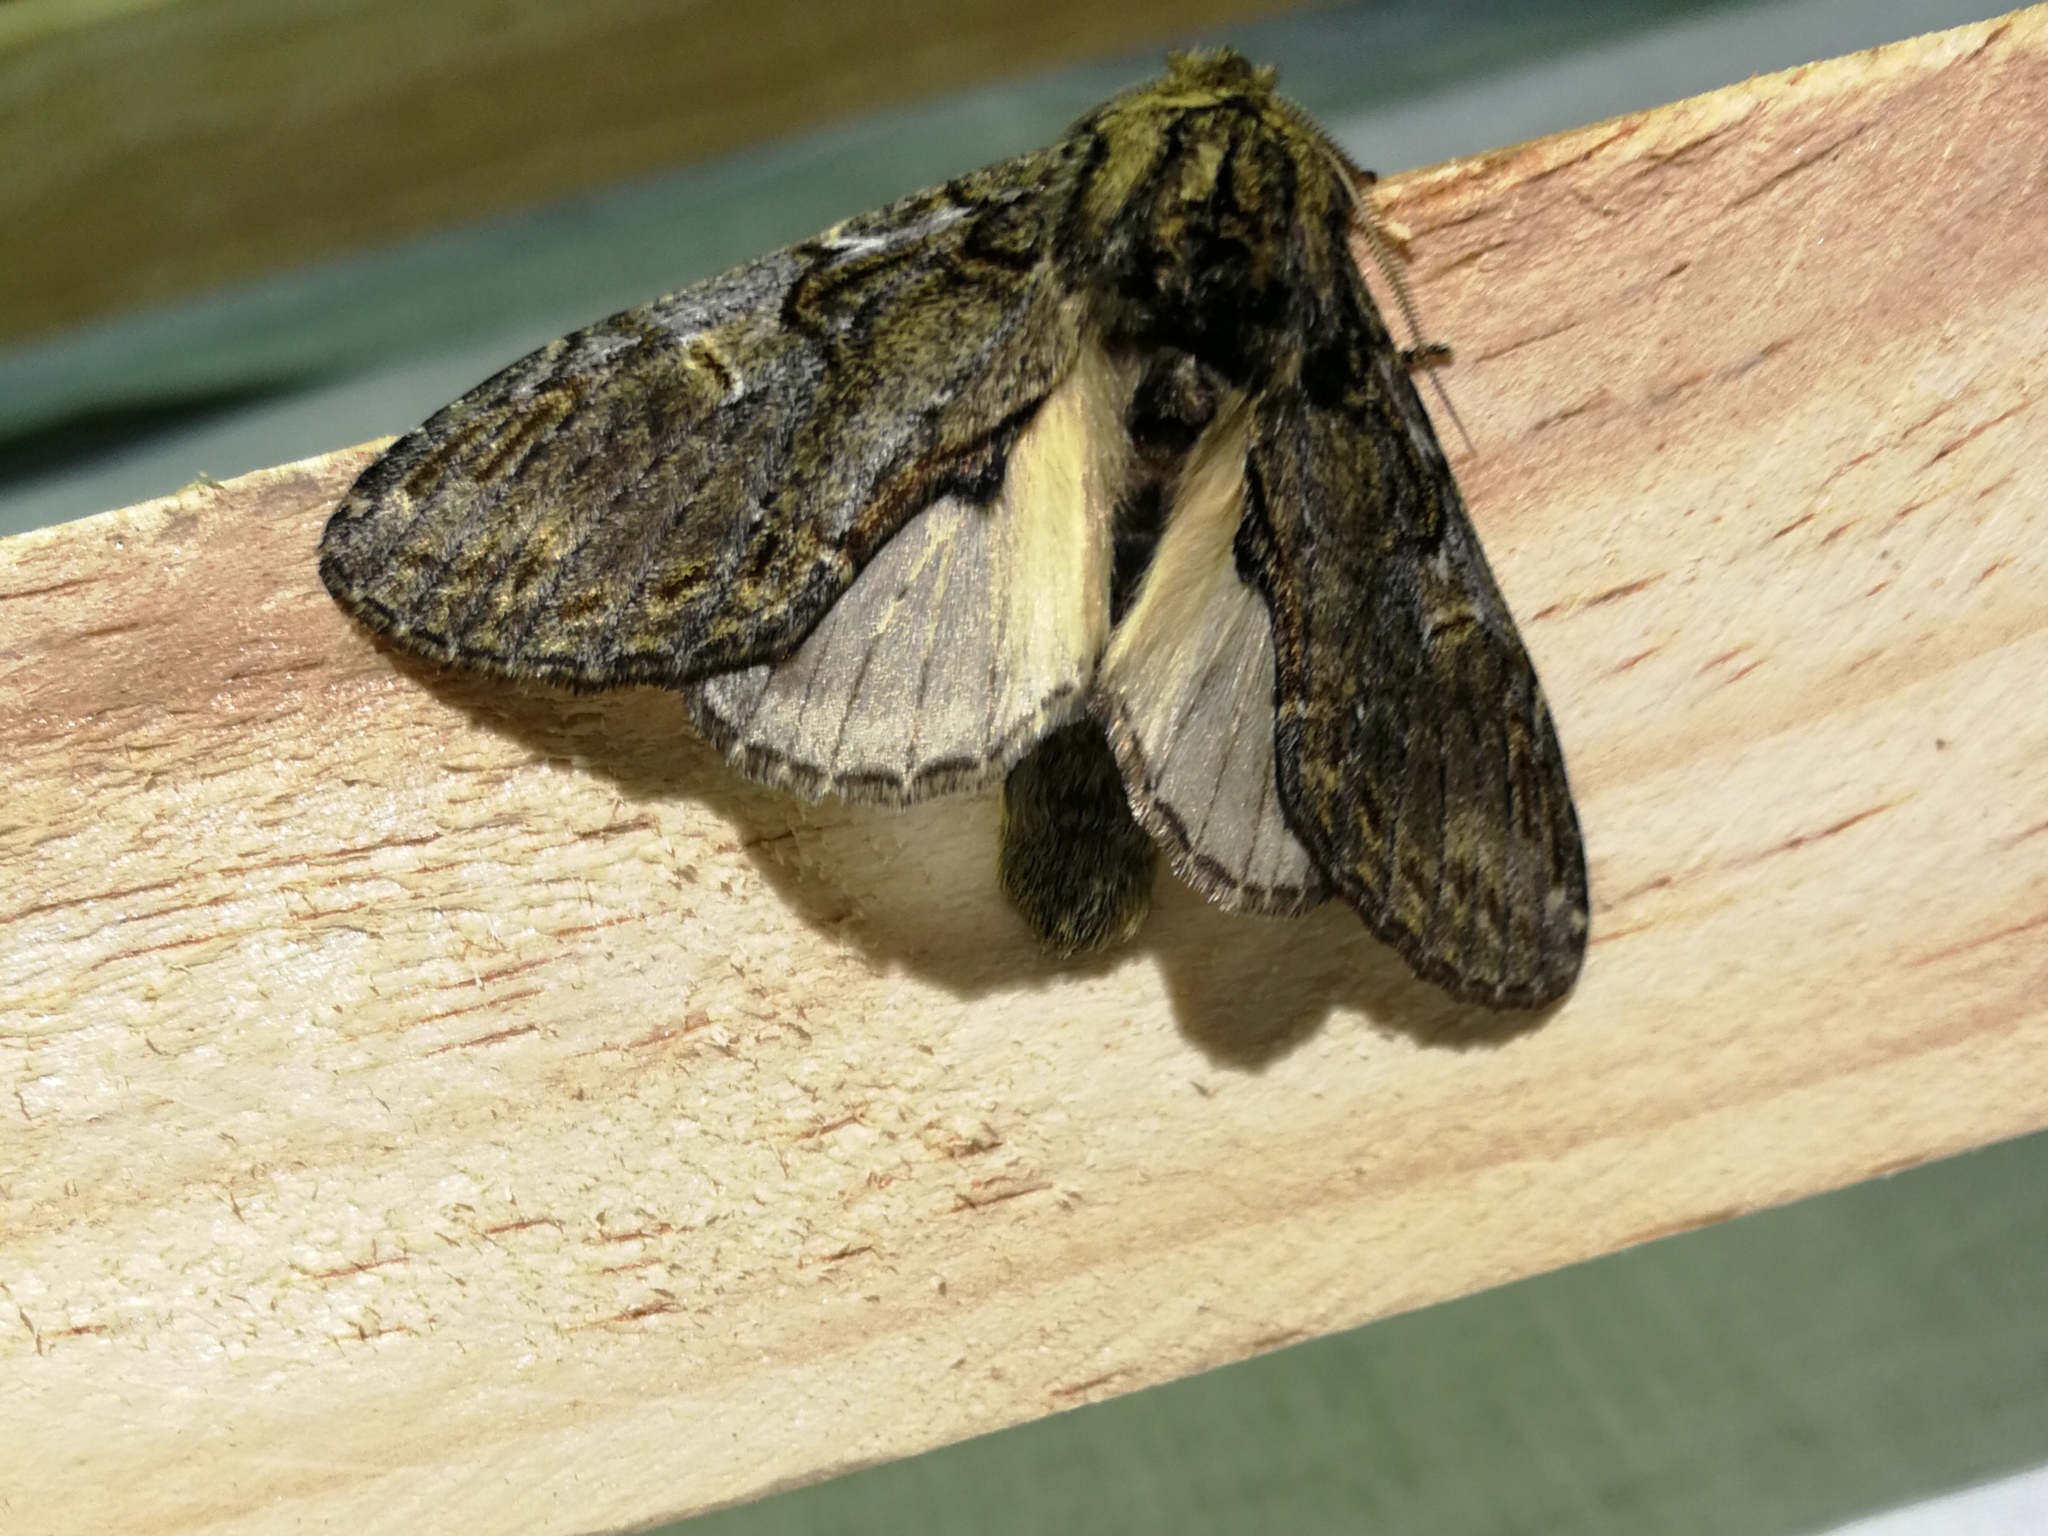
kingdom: Animalia
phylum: Arthropoda
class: Insecta
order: Lepidoptera
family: Notodontidae
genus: Peridea
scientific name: Peridea anceps
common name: Great prominent
